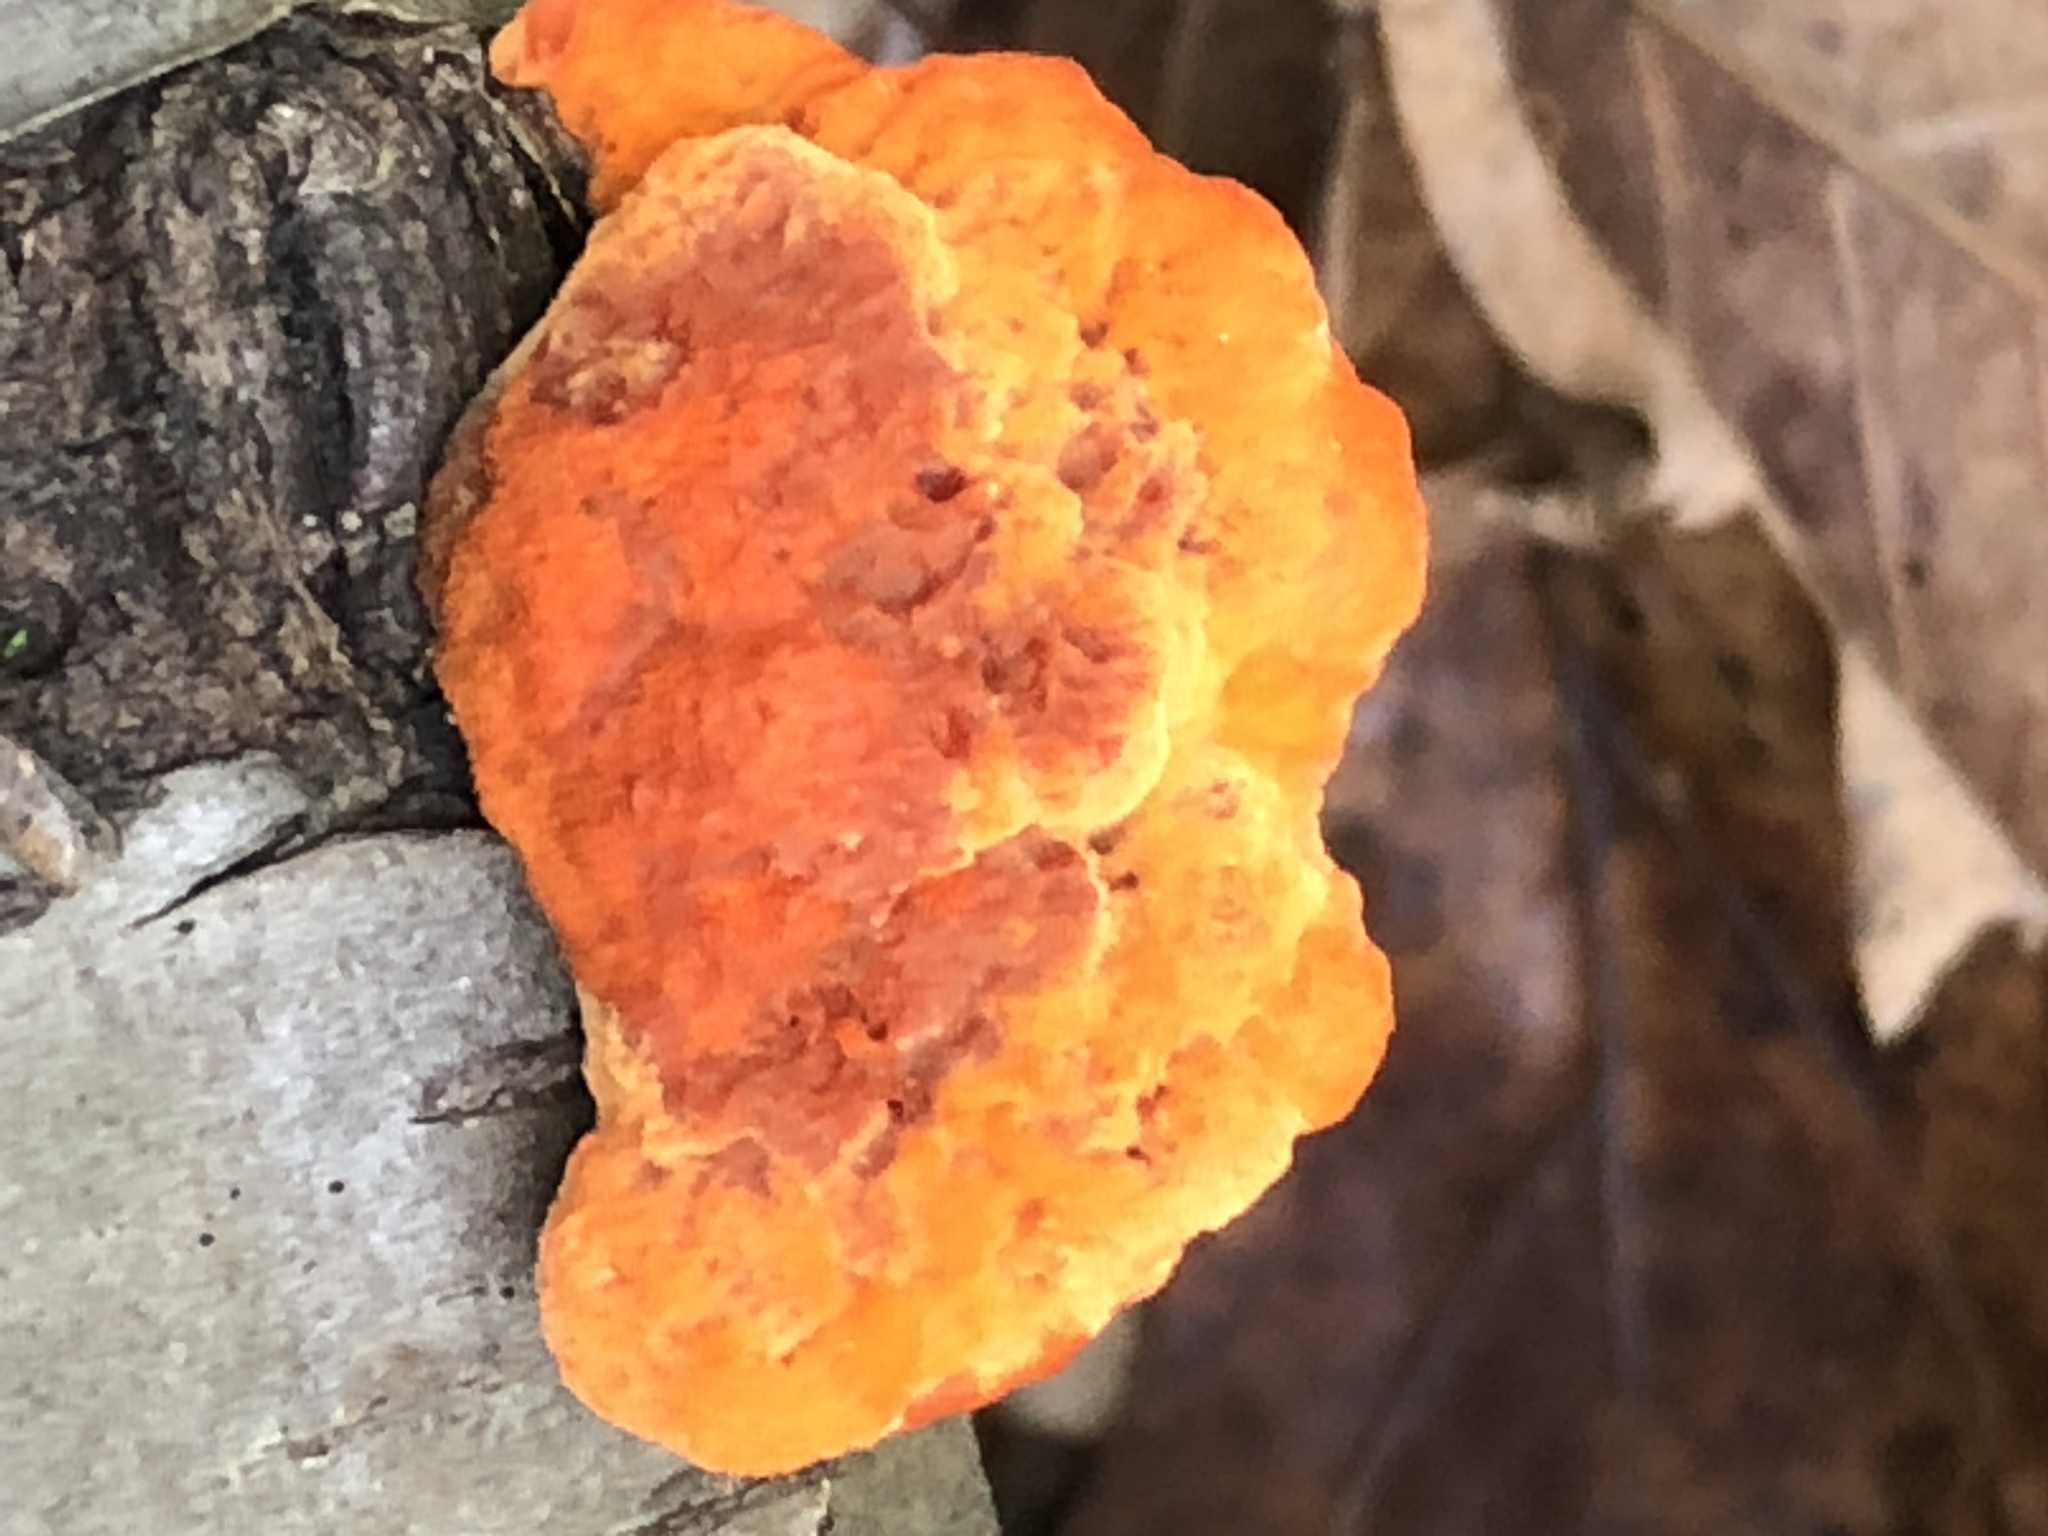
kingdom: Fungi
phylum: Basidiomycota
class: Agaricomycetes
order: Polyporales
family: Polyporaceae
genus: Trametes
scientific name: Trametes cinnabarina
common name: Northern cinnabar polypore
